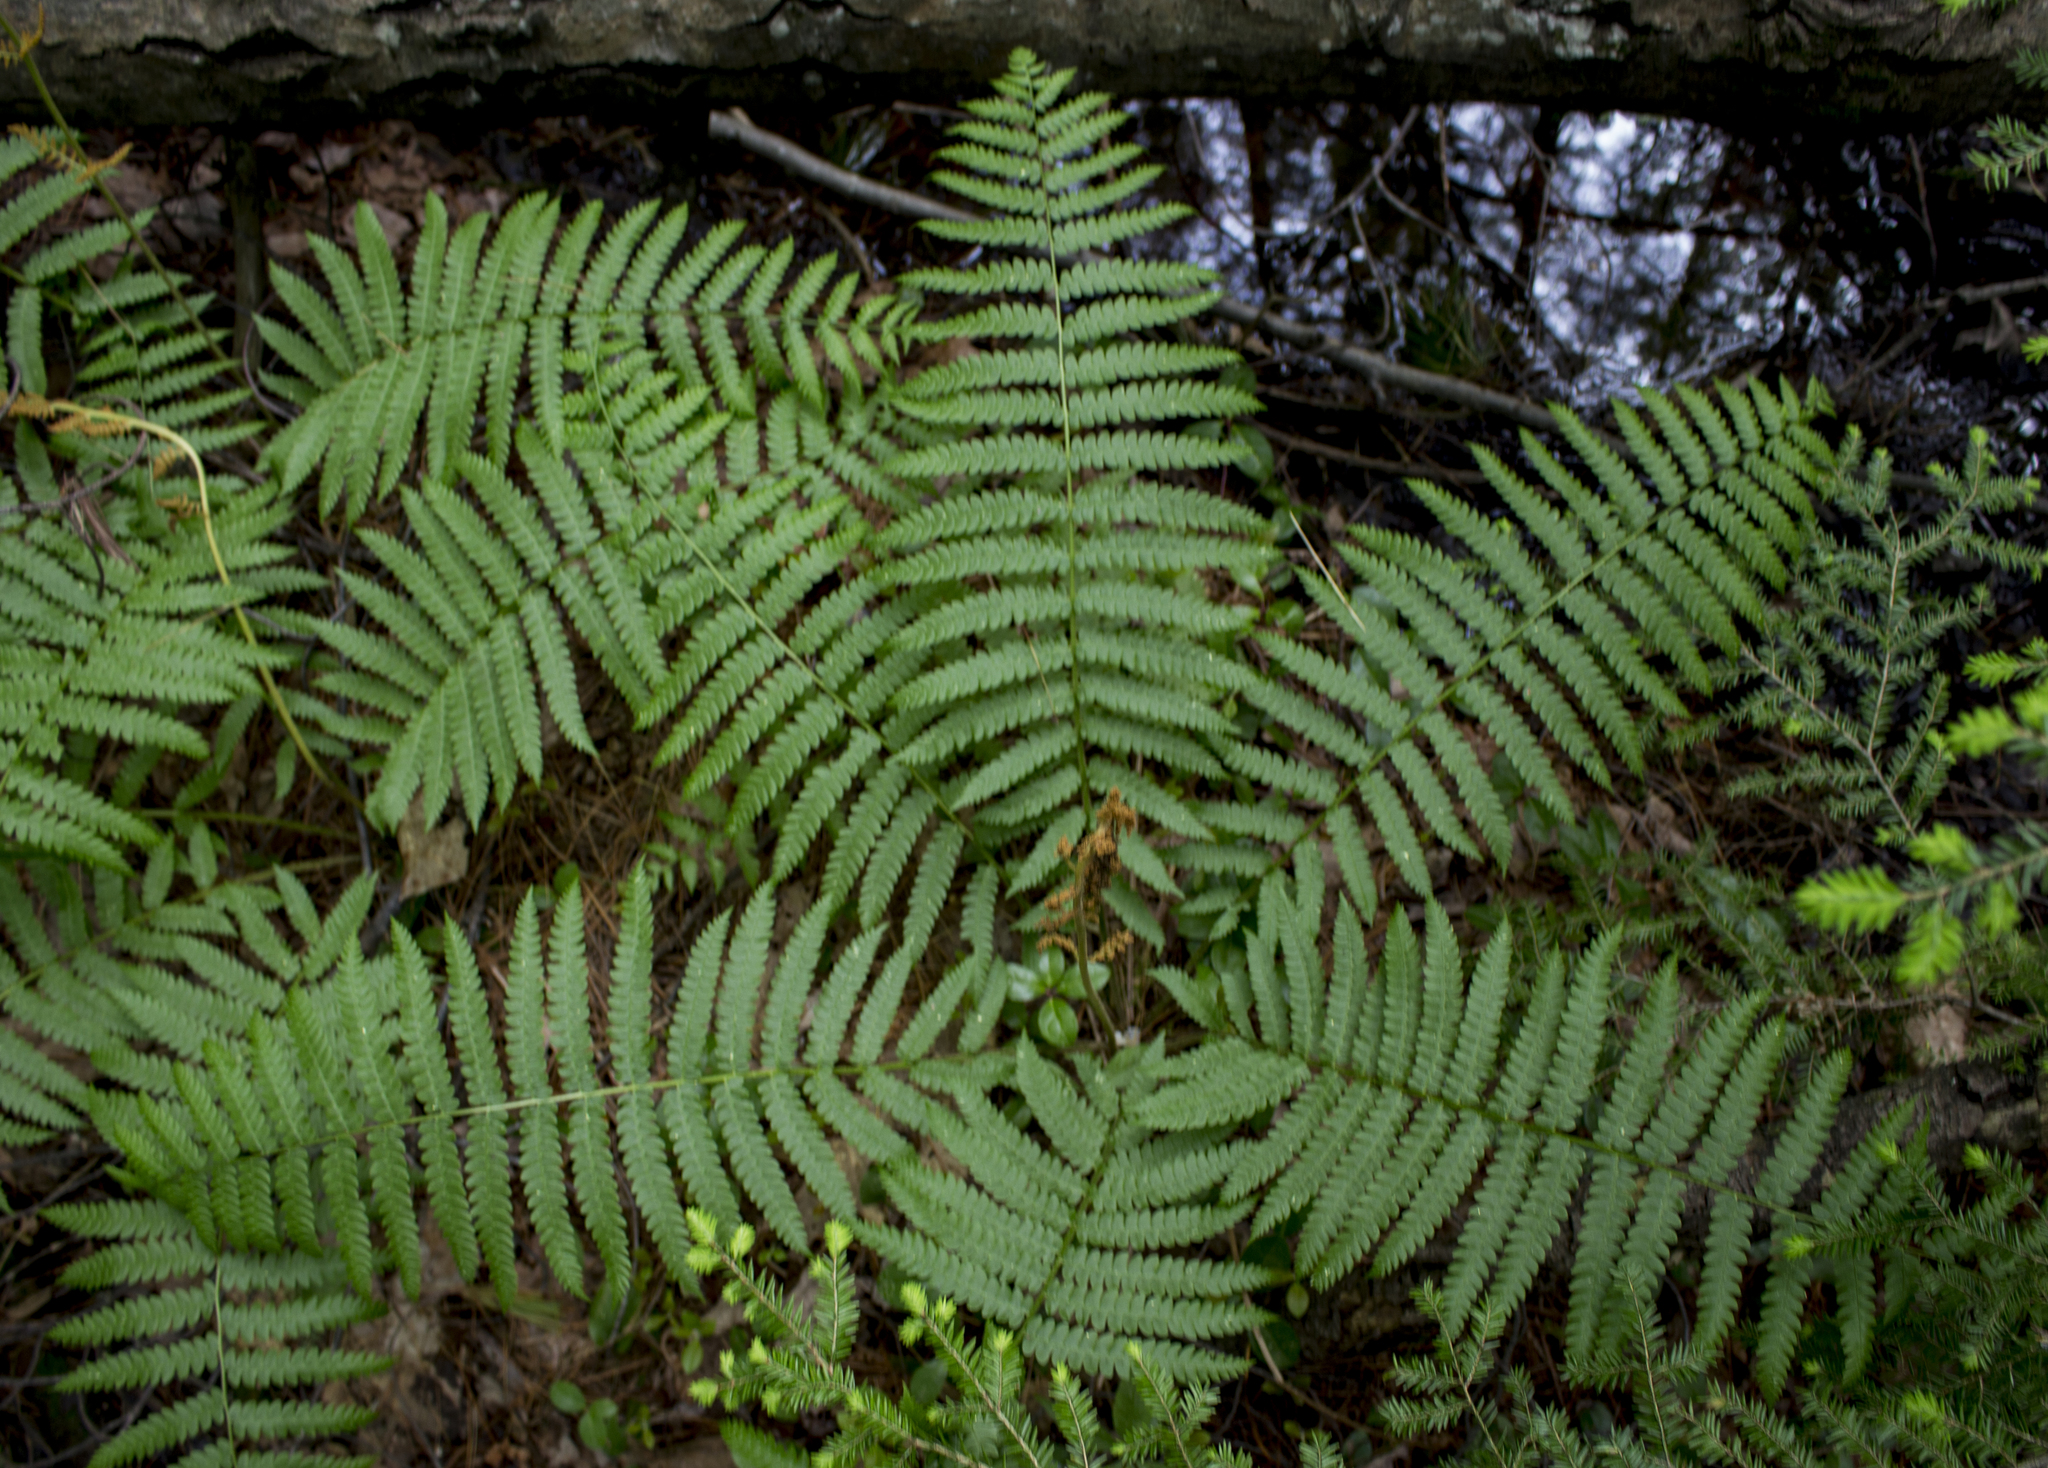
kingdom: Plantae
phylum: Tracheophyta
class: Polypodiopsida
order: Osmundales
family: Osmundaceae
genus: Osmundastrum
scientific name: Osmundastrum cinnamomeum
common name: Cinnamon fern
